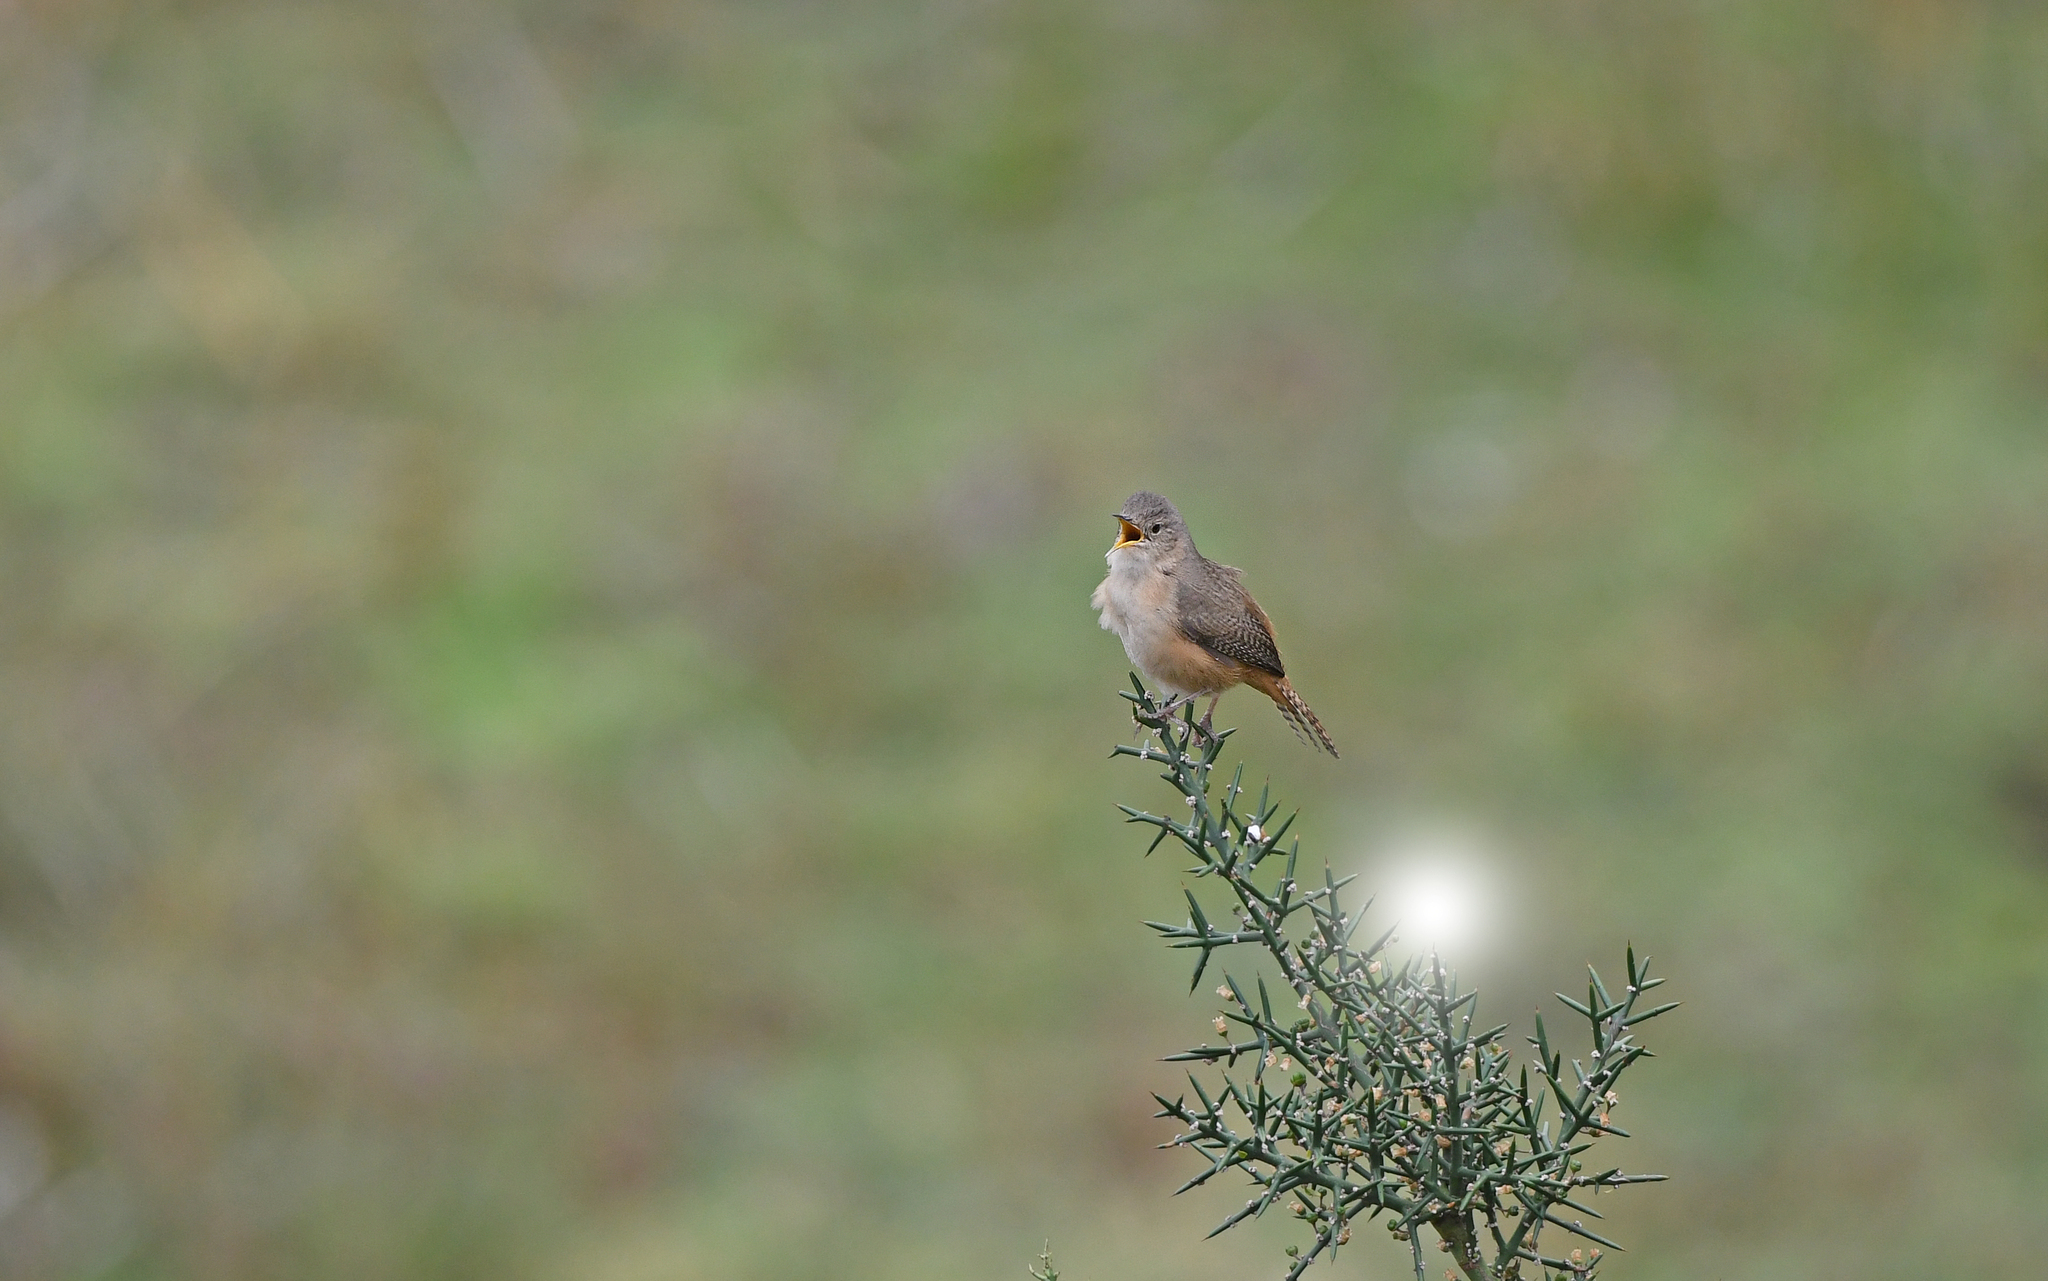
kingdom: Animalia
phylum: Chordata
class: Aves
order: Passeriformes
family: Troglodytidae
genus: Troglodytes
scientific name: Troglodytes aedon
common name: House wren
